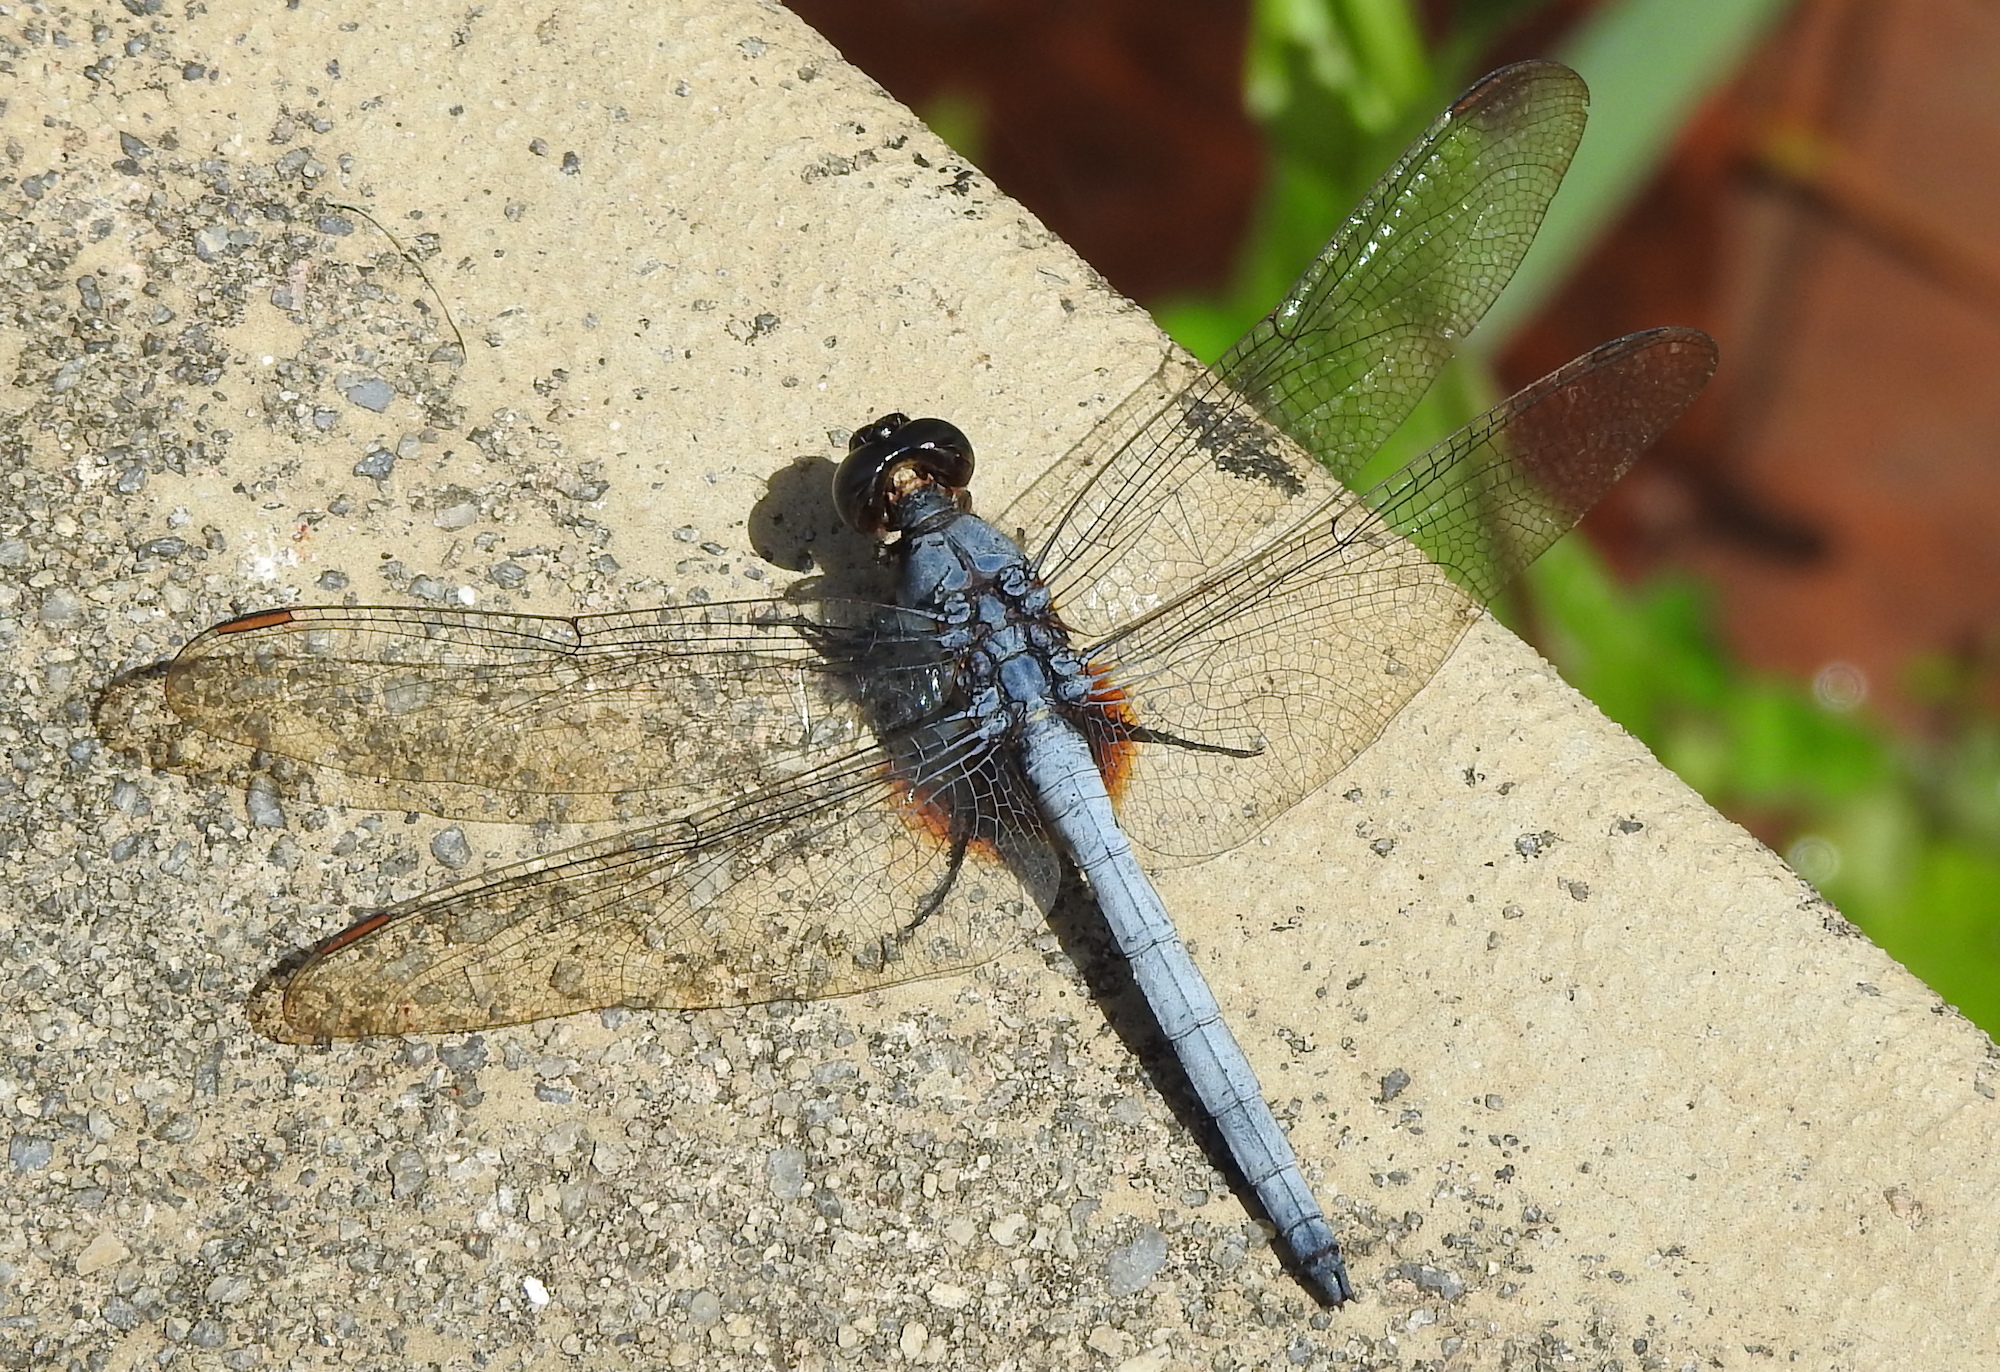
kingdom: Animalia
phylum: Arthropoda
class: Insecta
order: Odonata
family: Libellulidae
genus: Orthetrum
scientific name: Orthetrum glaucum
